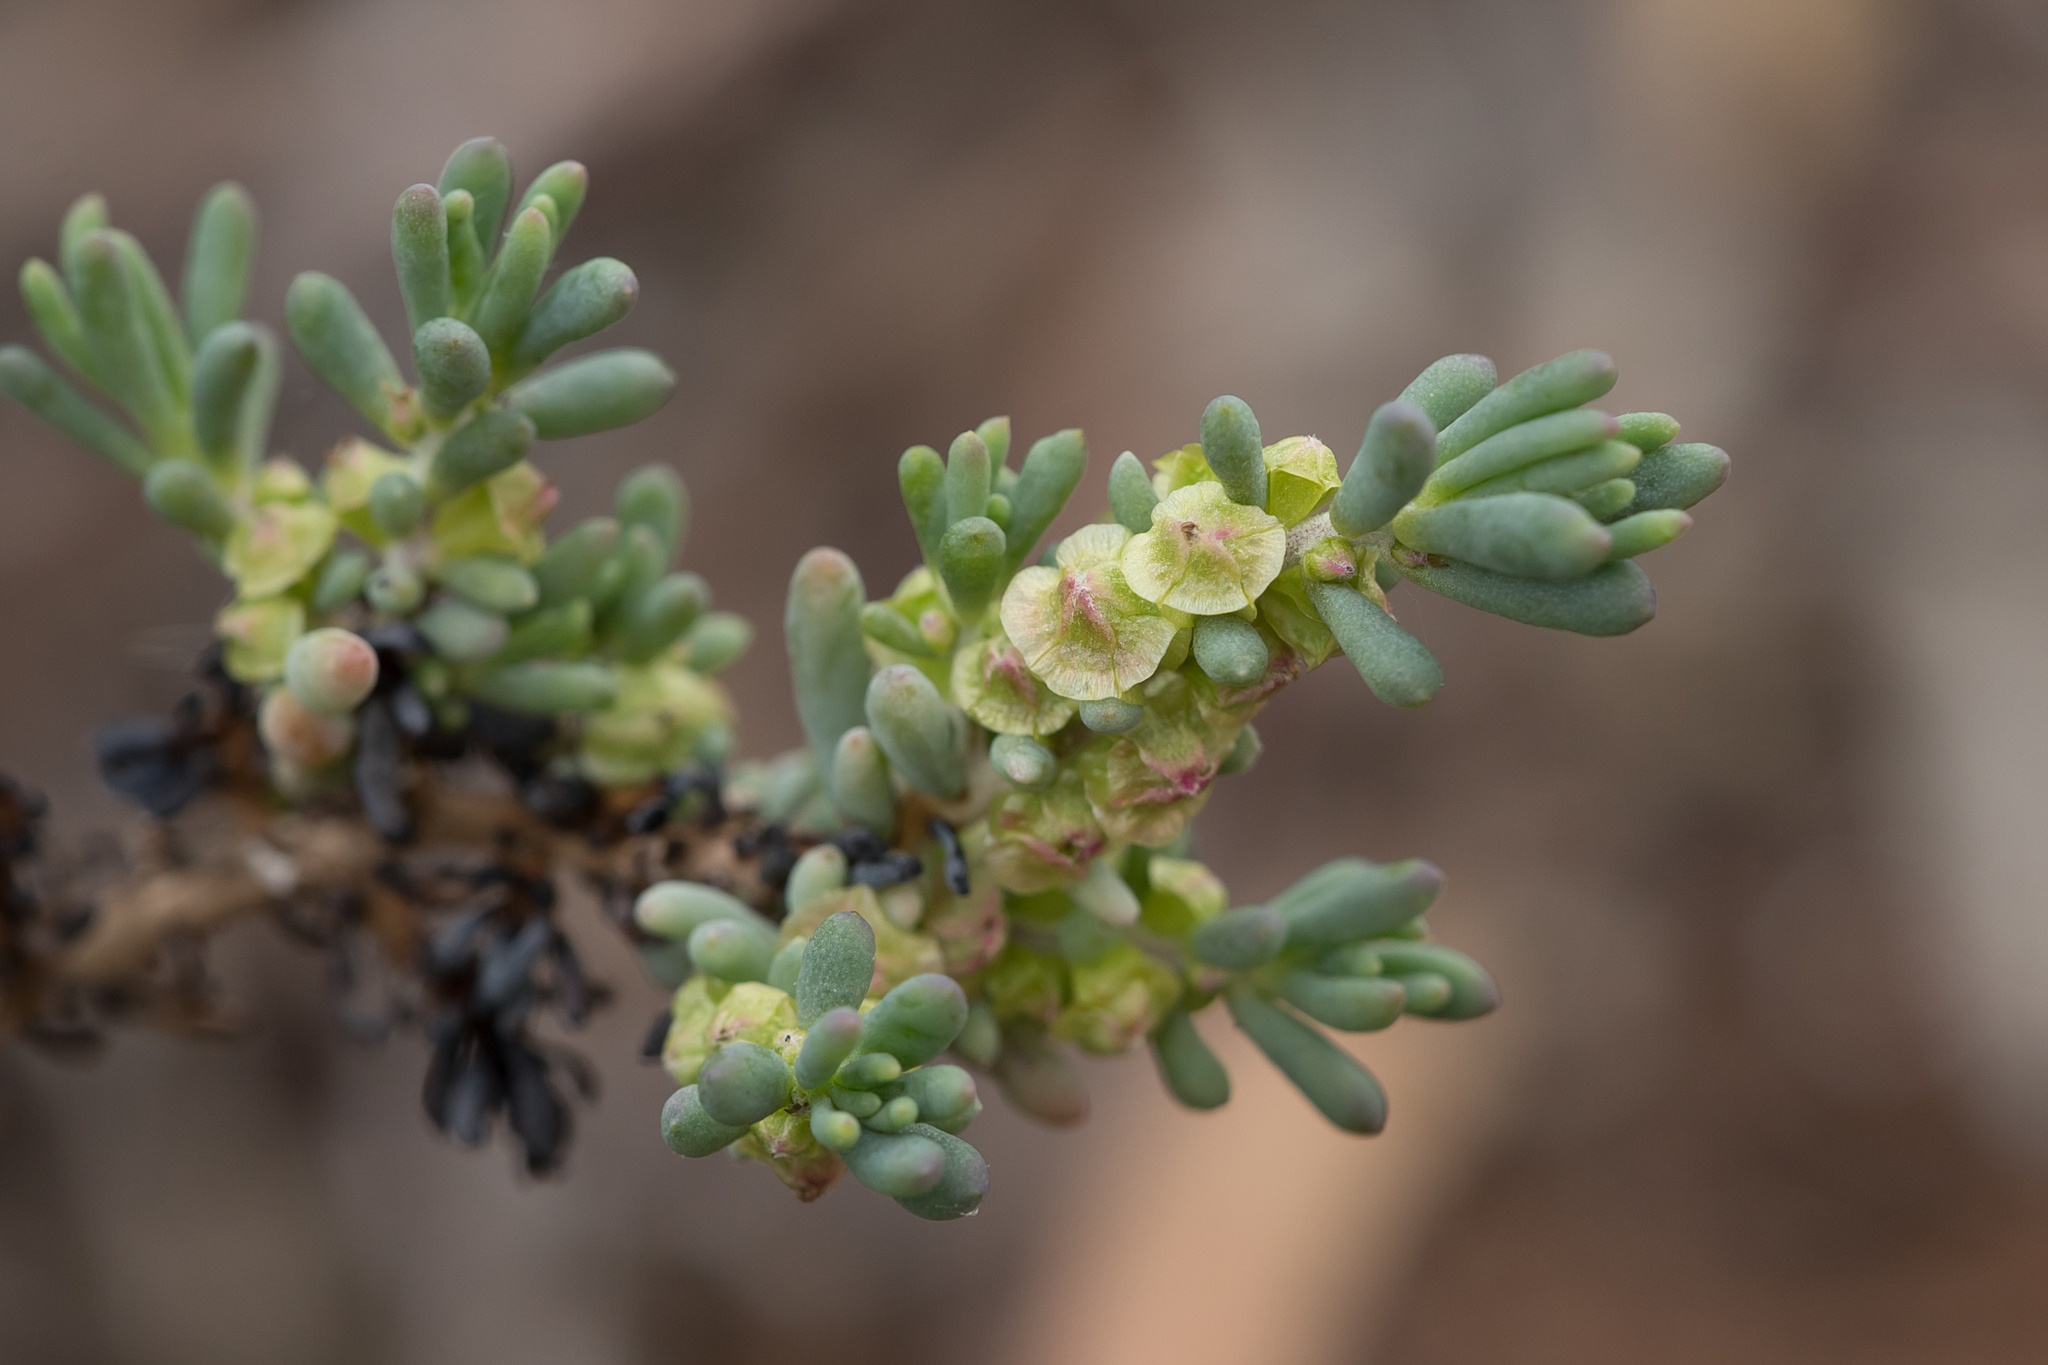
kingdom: Plantae
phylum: Tracheophyta
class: Magnoliopsida
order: Caryophyllales
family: Amaranthaceae
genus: Maireana
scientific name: Maireana pentatropis
